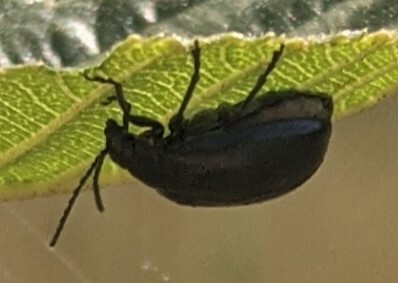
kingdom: Animalia
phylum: Arthropoda
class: Insecta
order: Coleoptera
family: Chrysomelidae
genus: Agelastica
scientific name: Agelastica alni
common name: Alder leaf beetle
